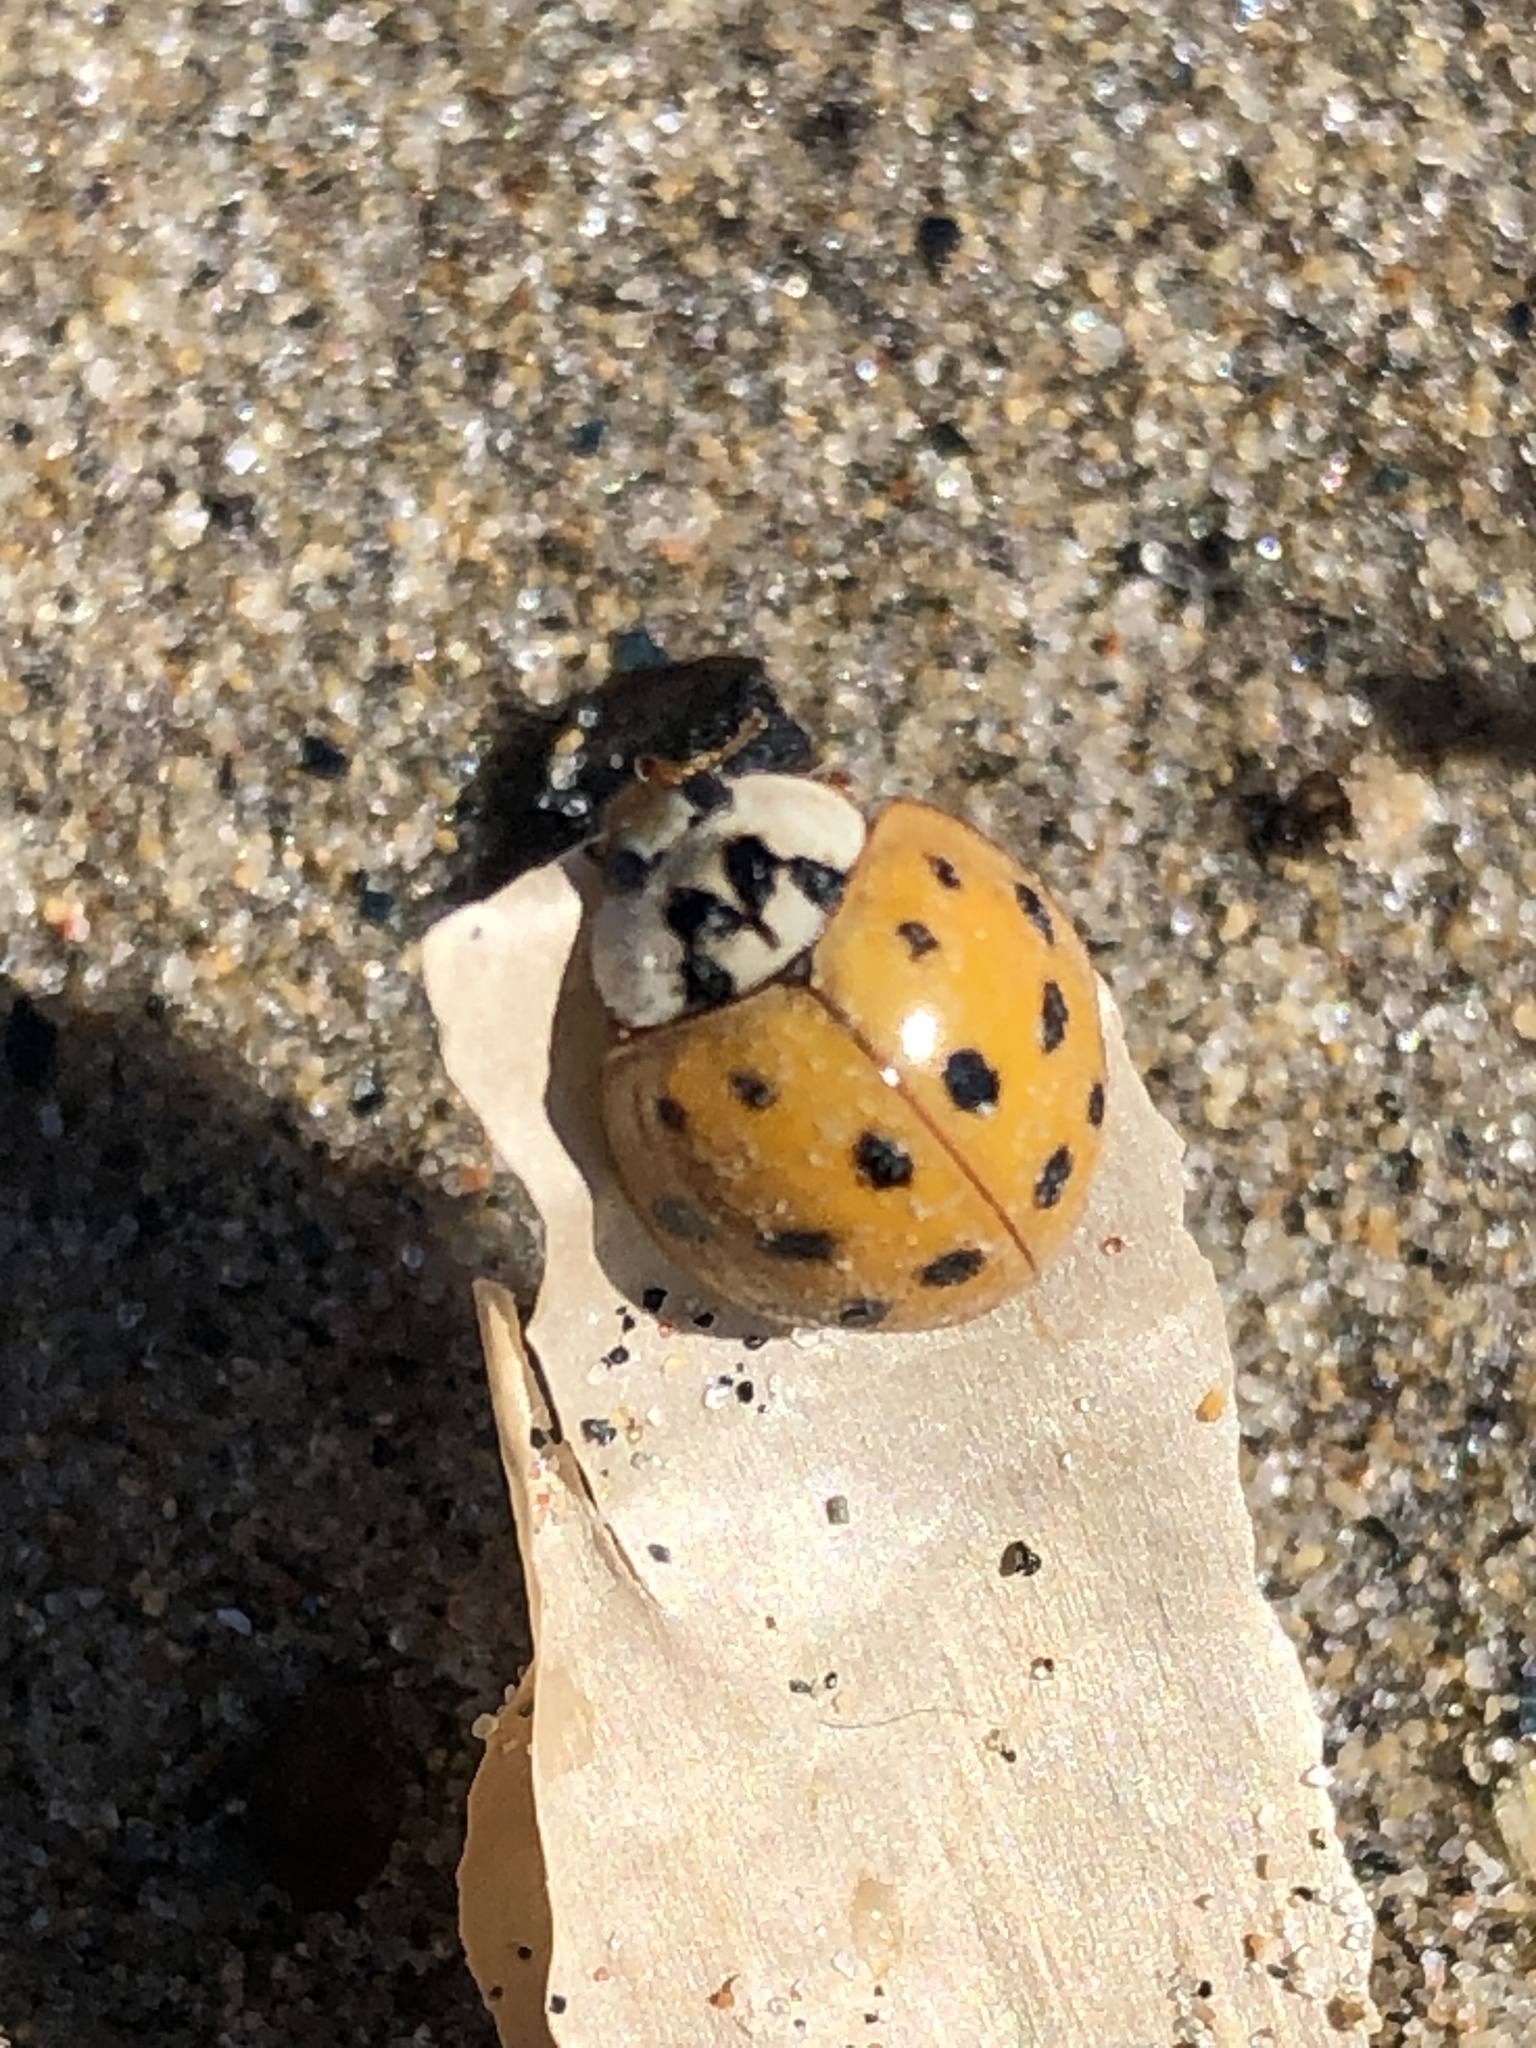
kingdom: Animalia
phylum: Arthropoda
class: Insecta
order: Coleoptera
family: Coccinellidae
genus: Harmonia
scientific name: Harmonia axyridis
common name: Harlequin ladybird
